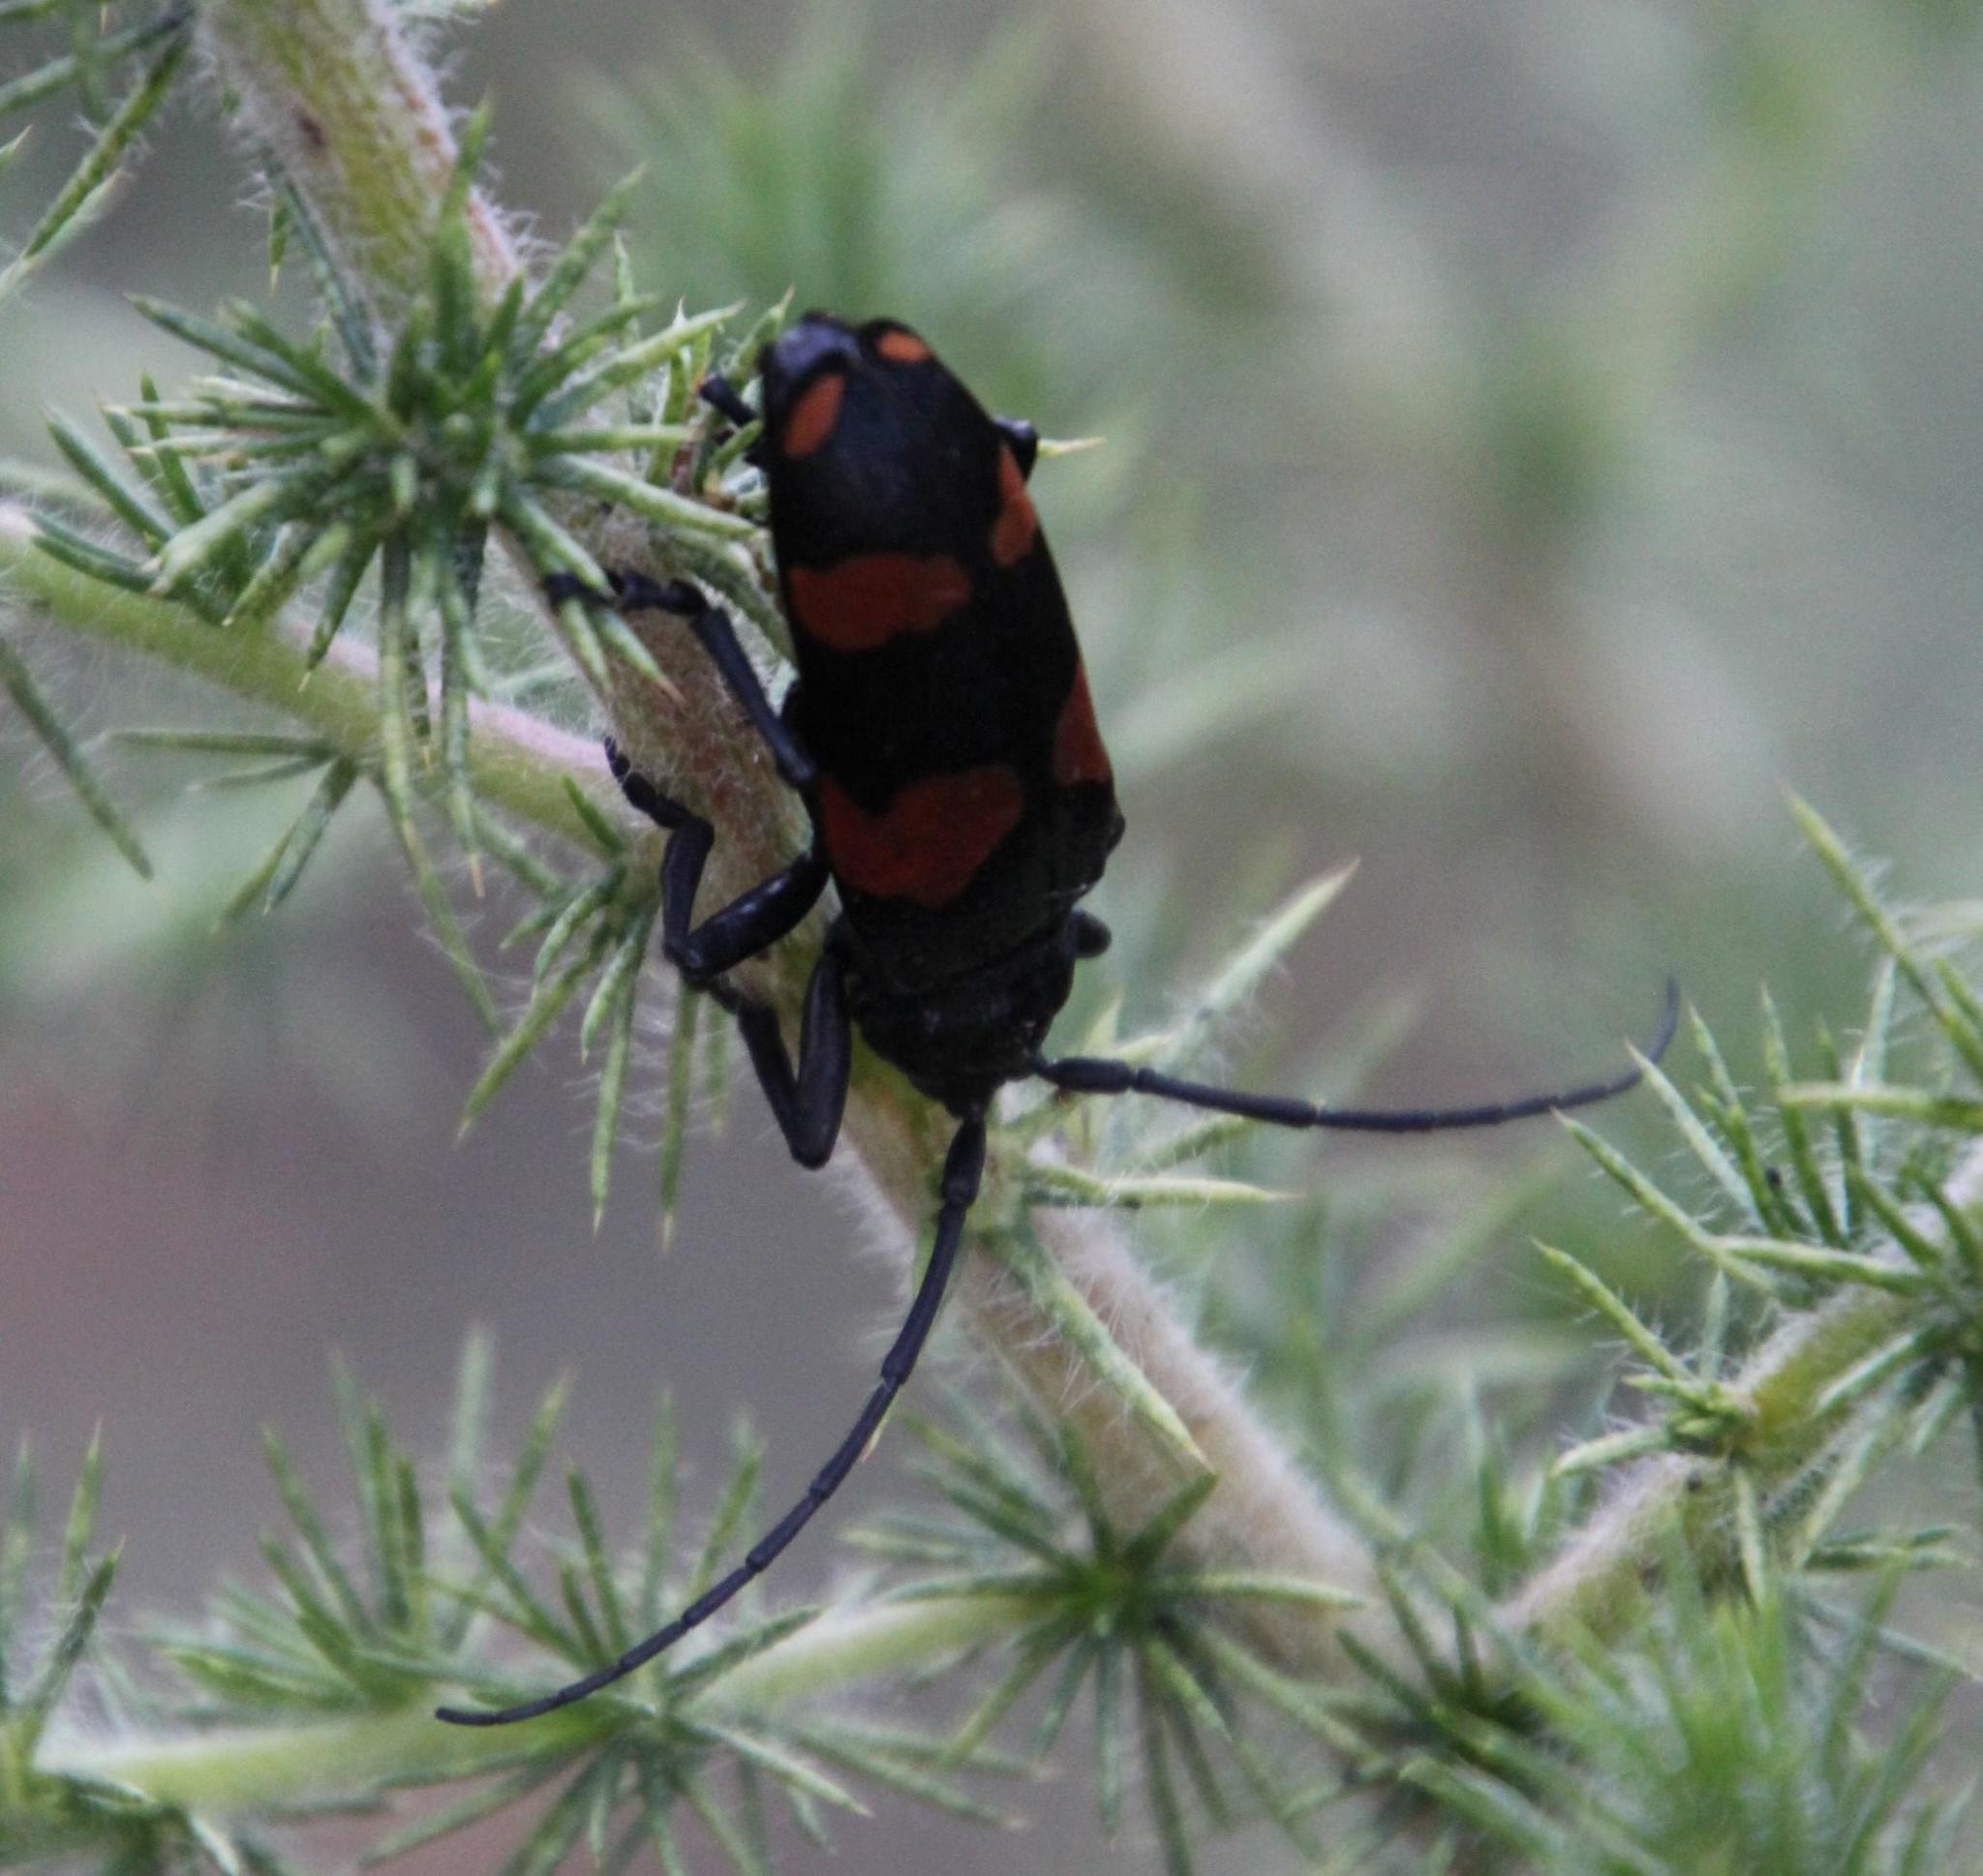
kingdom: Animalia
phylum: Arthropoda
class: Insecta
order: Coleoptera
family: Cerambycidae
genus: Ceroplesis
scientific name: Ceroplesis aethiops
